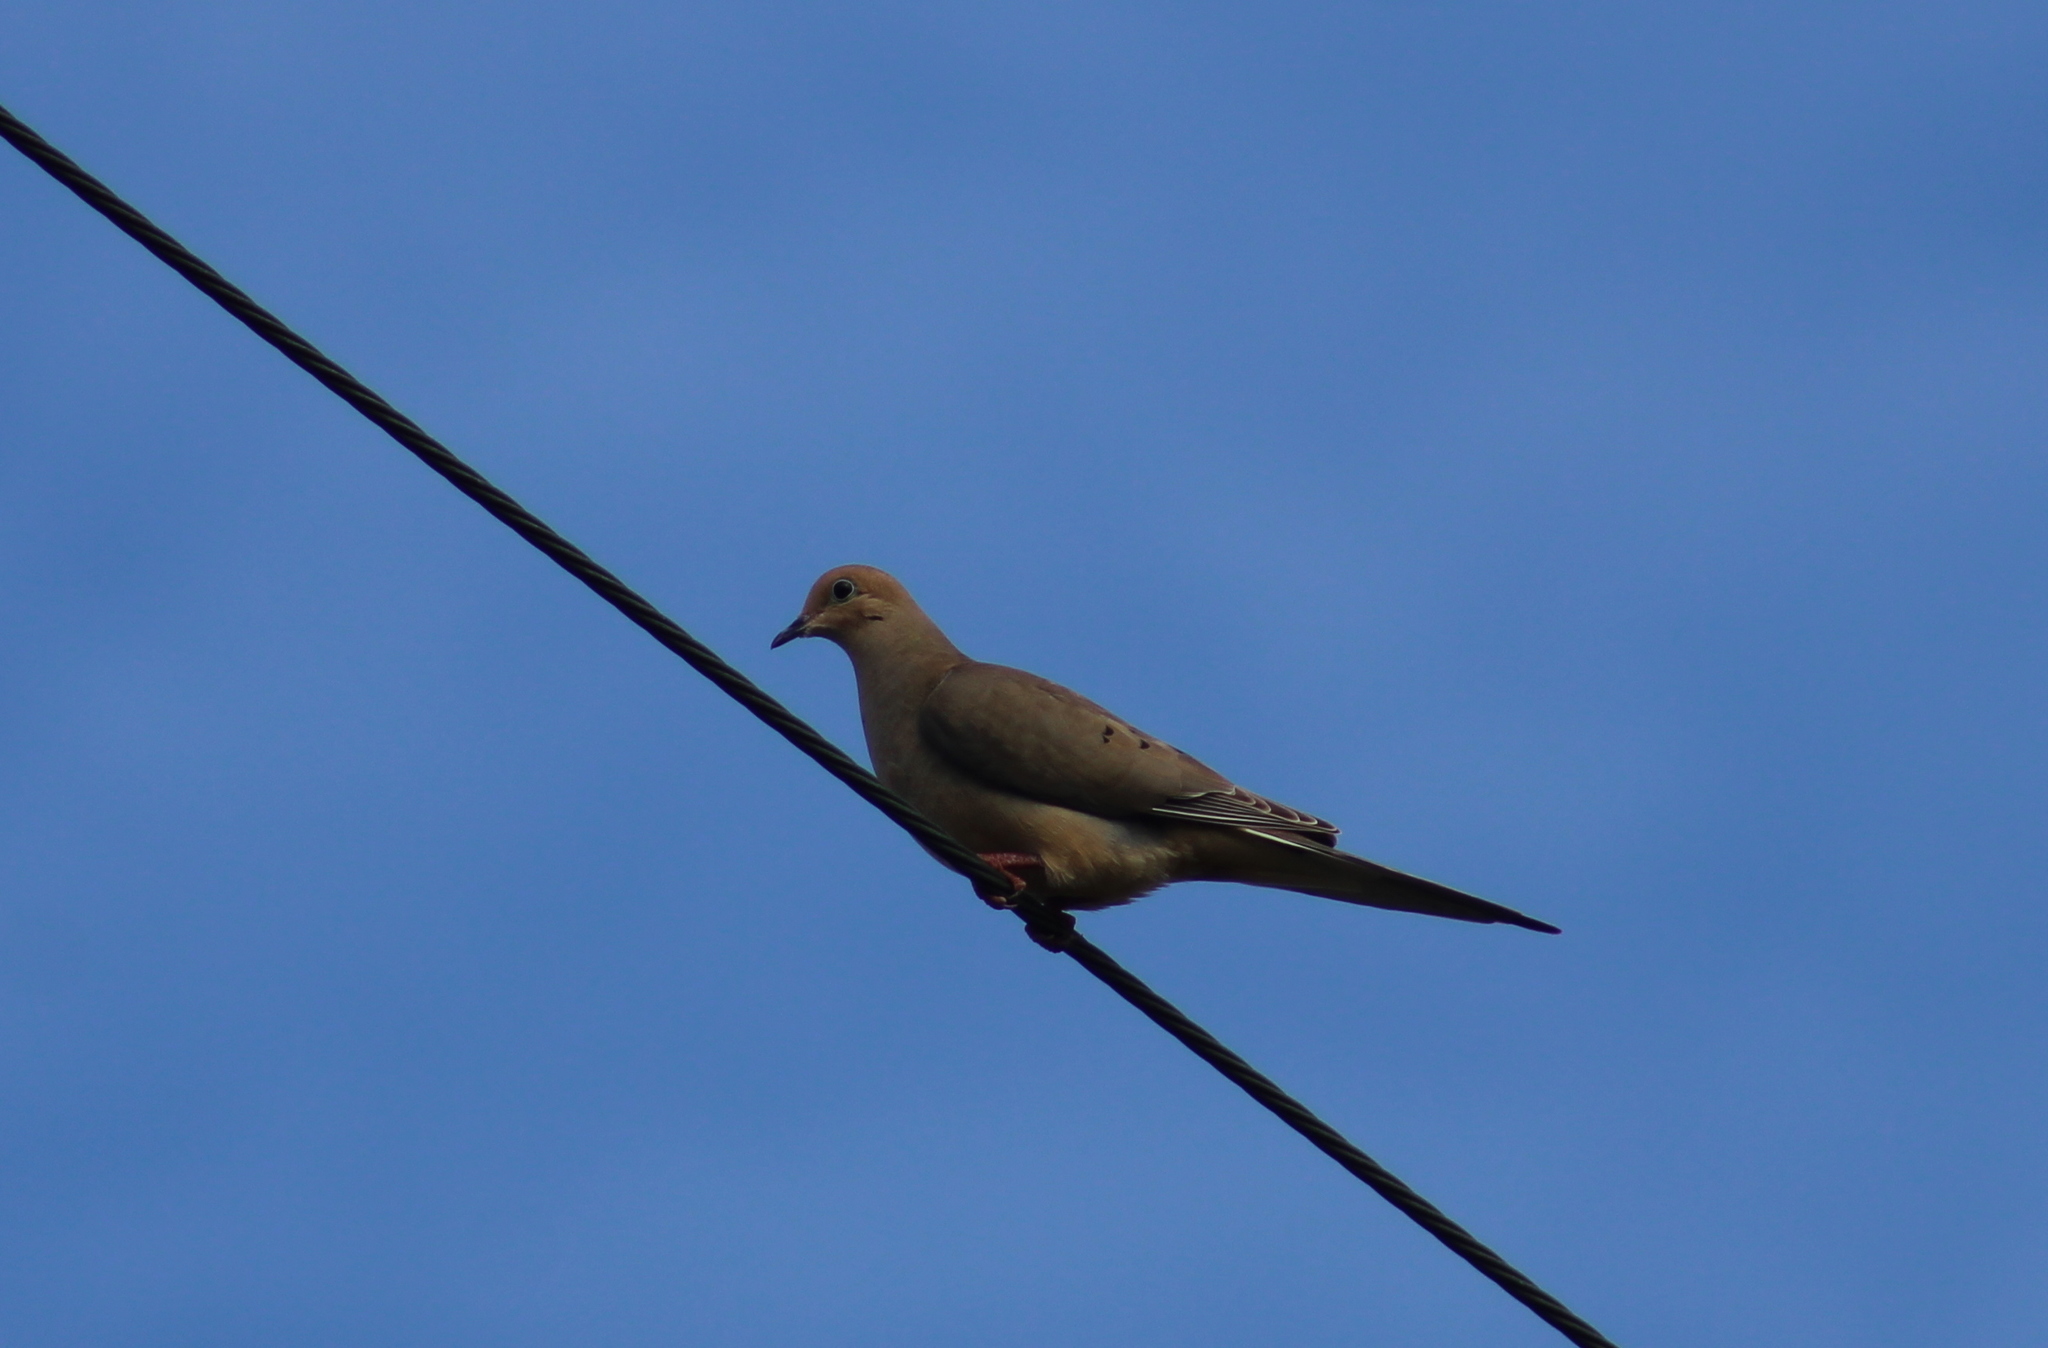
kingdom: Animalia
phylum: Chordata
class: Aves
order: Columbiformes
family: Columbidae
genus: Zenaida
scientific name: Zenaida macroura
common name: Mourning dove
